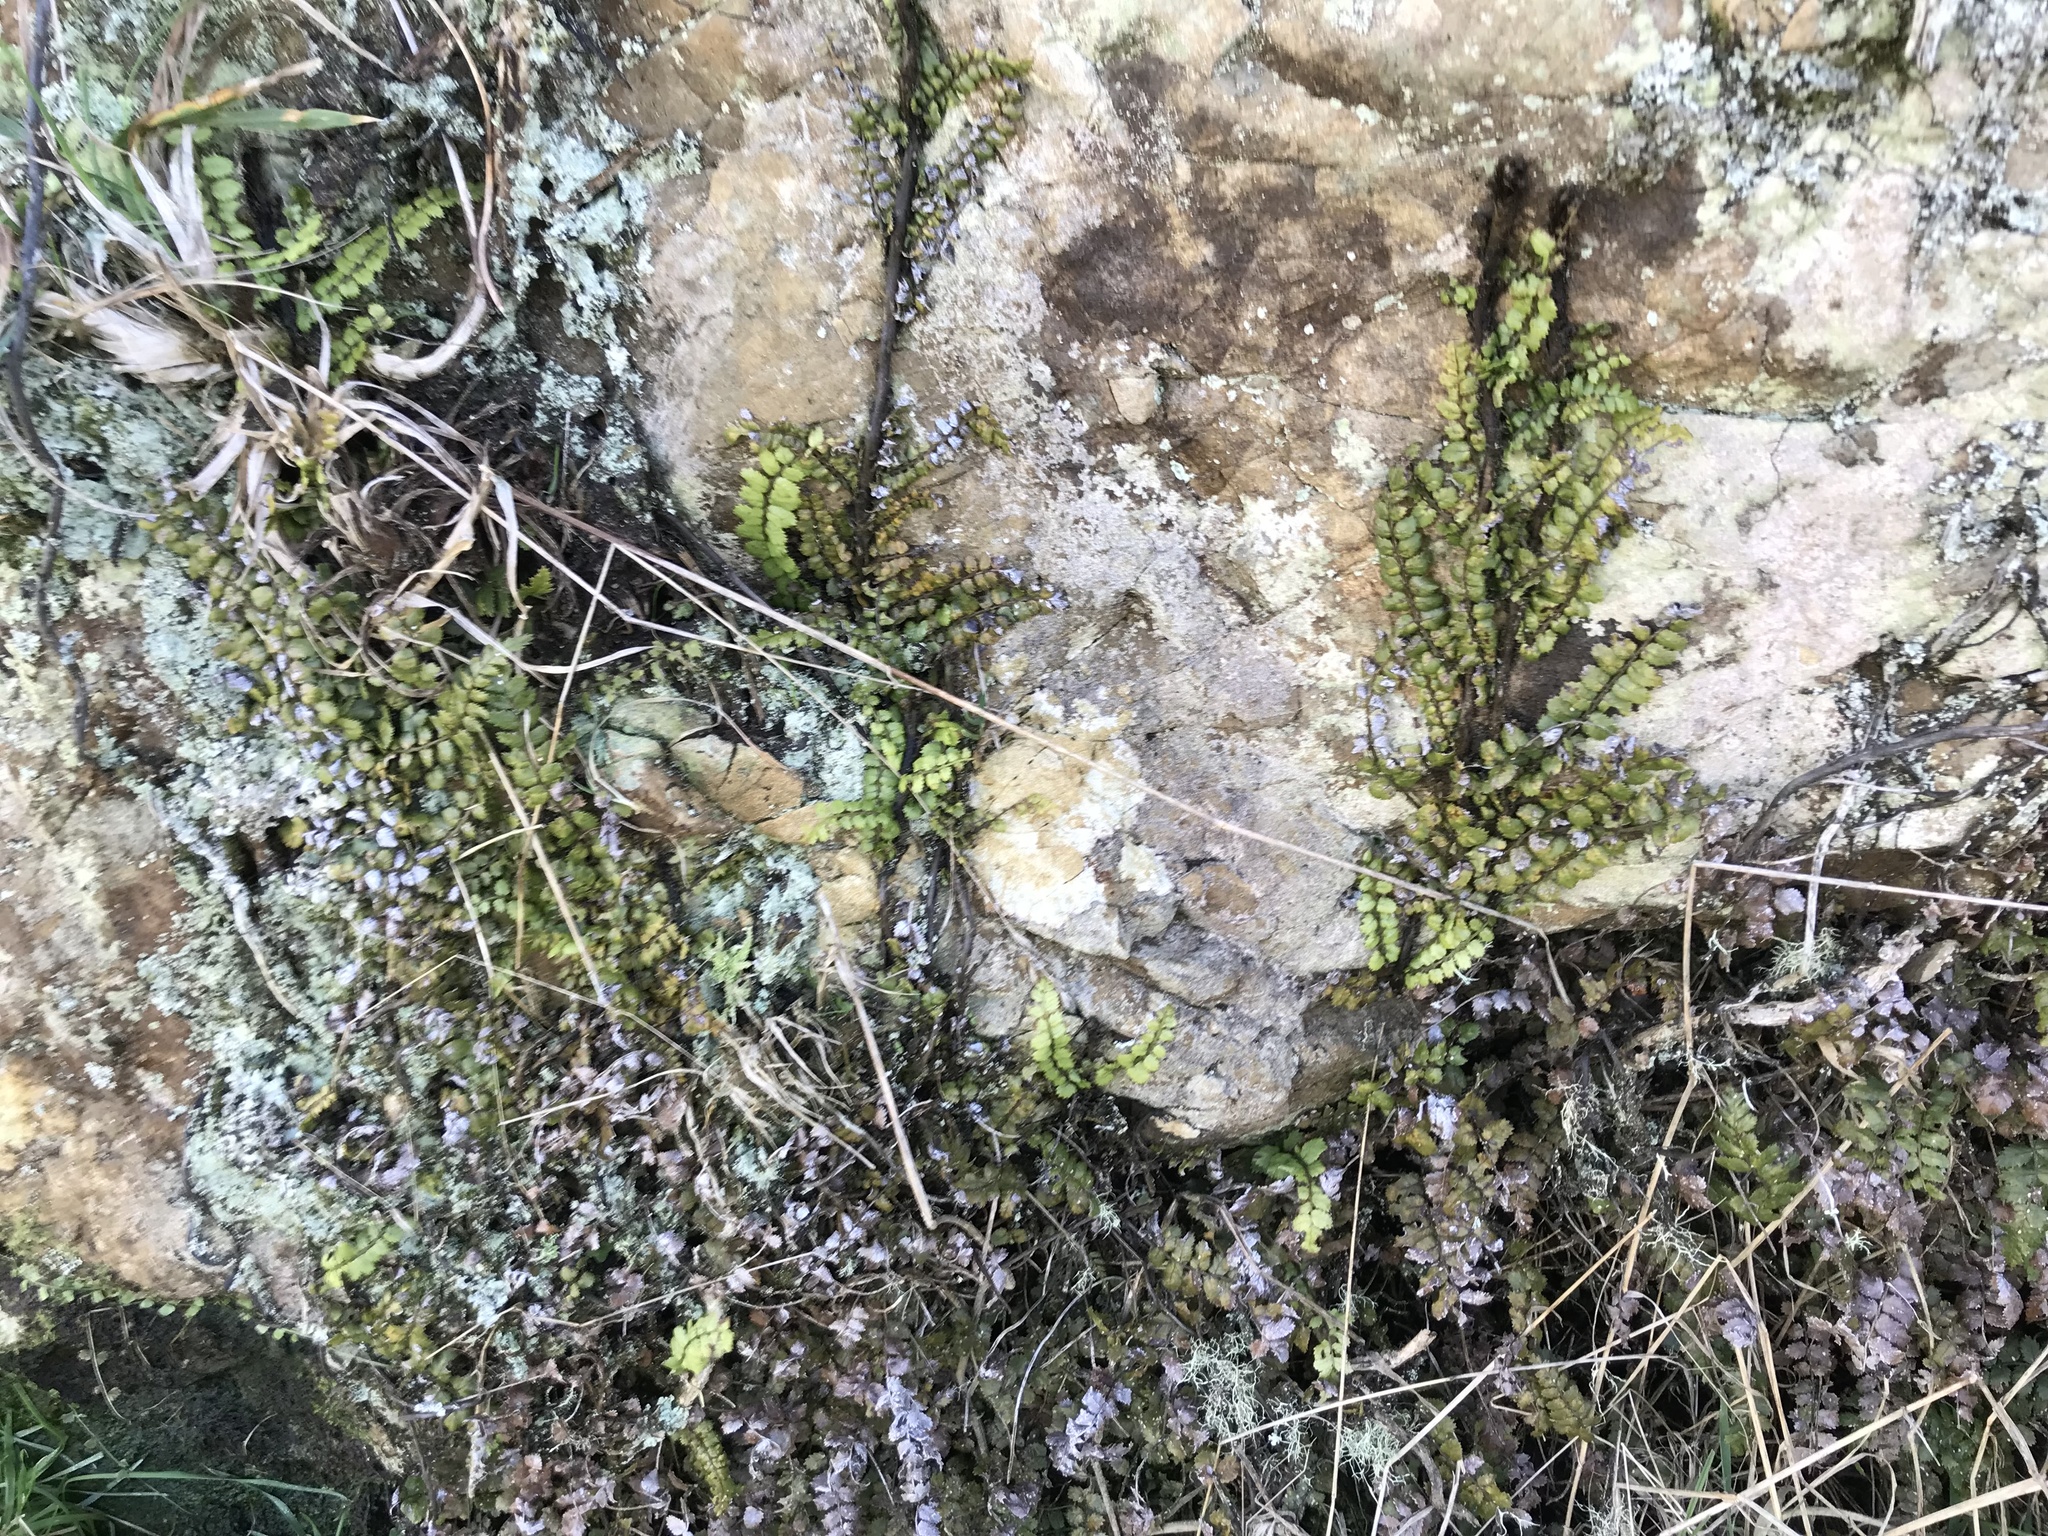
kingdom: Plantae
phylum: Tracheophyta
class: Polypodiopsida
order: Polypodiales
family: Blechnaceae
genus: Icarus
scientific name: Icarus filiformis
